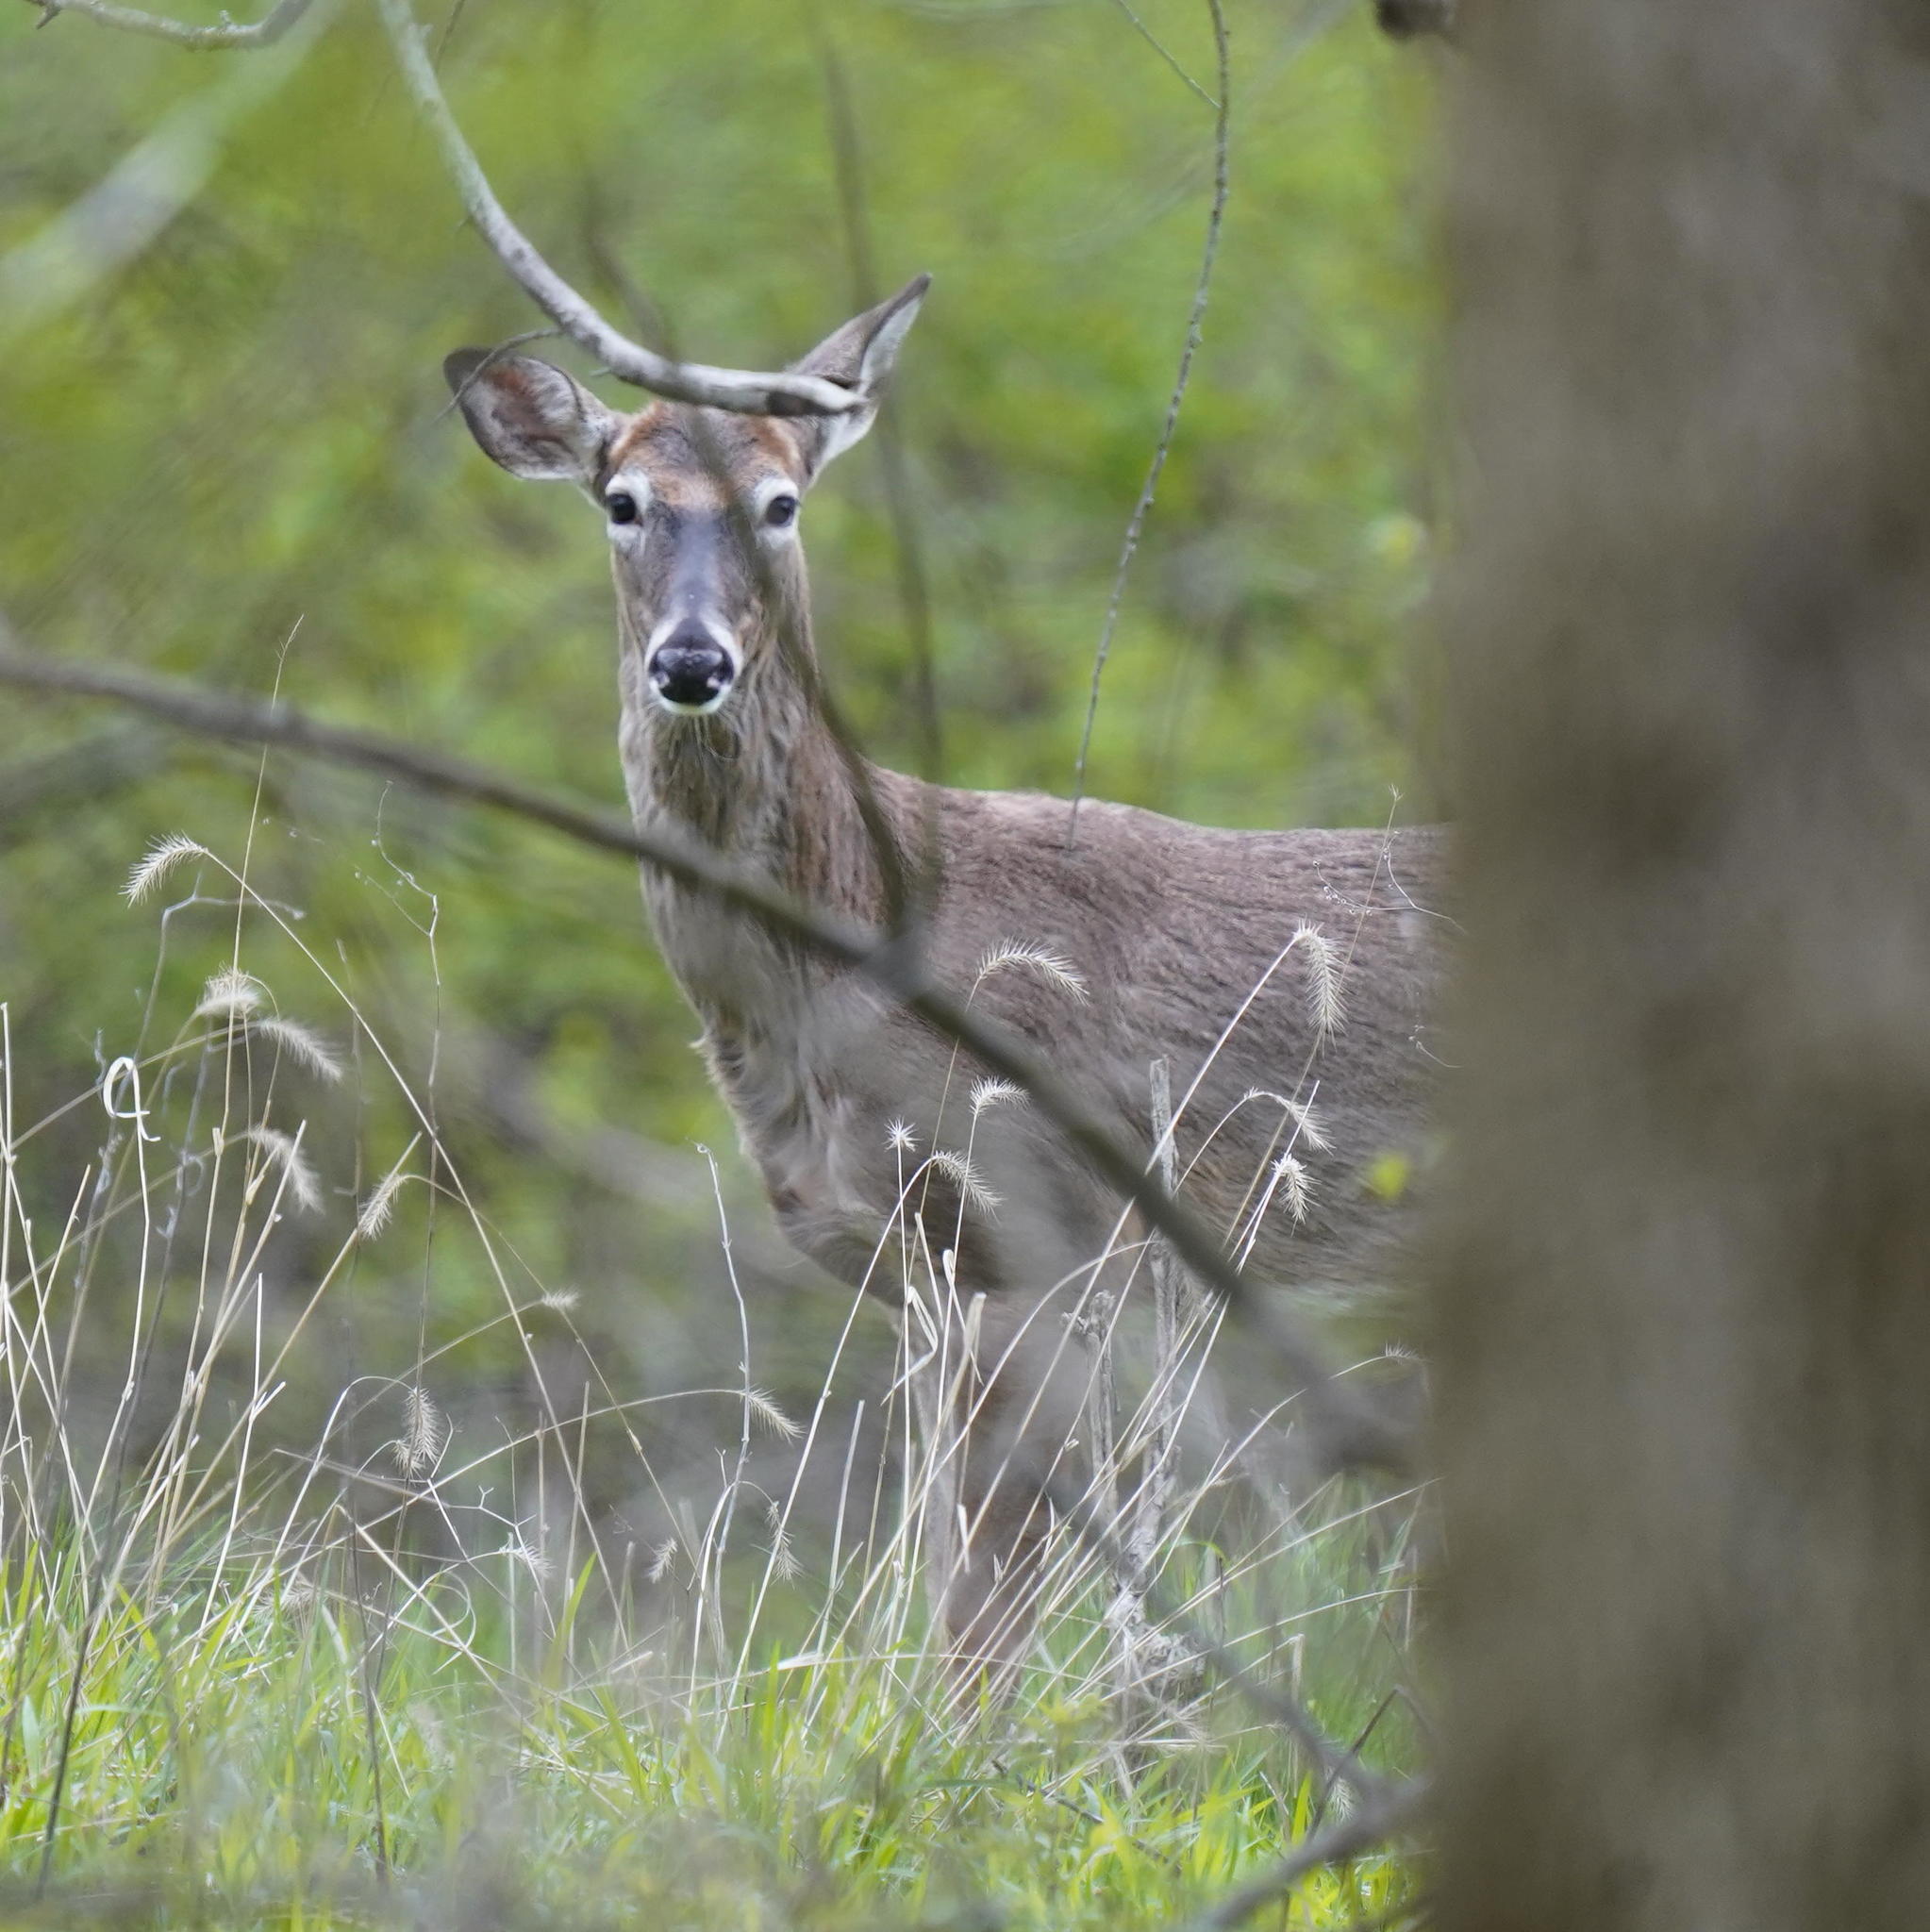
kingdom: Animalia
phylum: Chordata
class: Mammalia
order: Artiodactyla
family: Cervidae
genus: Odocoileus
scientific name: Odocoileus virginianus
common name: White-tailed deer
